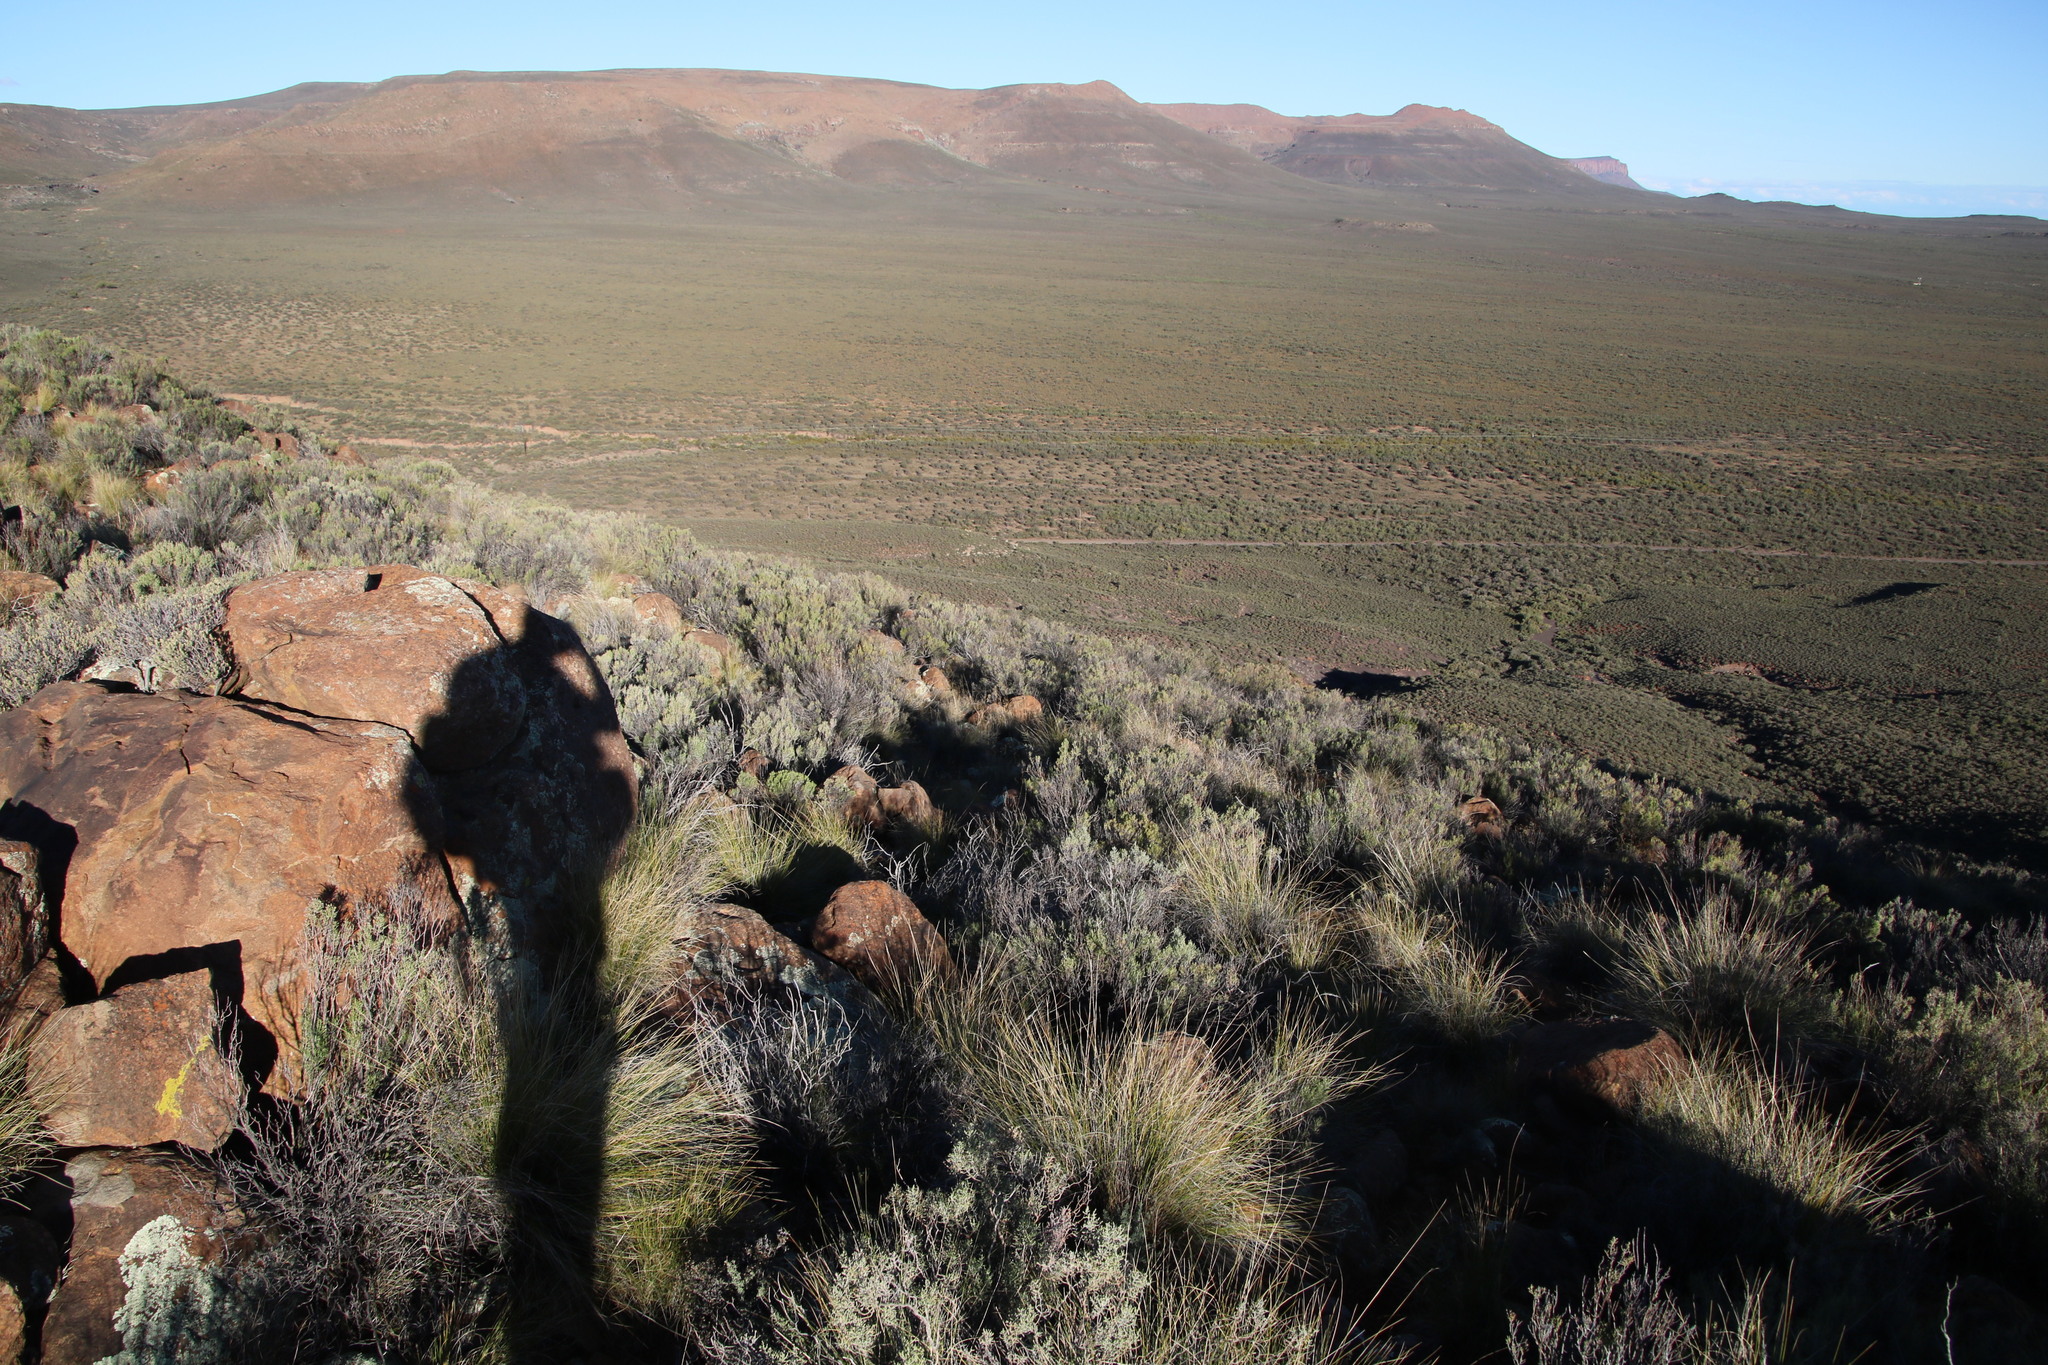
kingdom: Plantae
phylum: Tracheophyta
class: Magnoliopsida
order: Asterales
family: Asteraceae
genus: Dicerothamnus
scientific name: Dicerothamnus rhinocerotis
